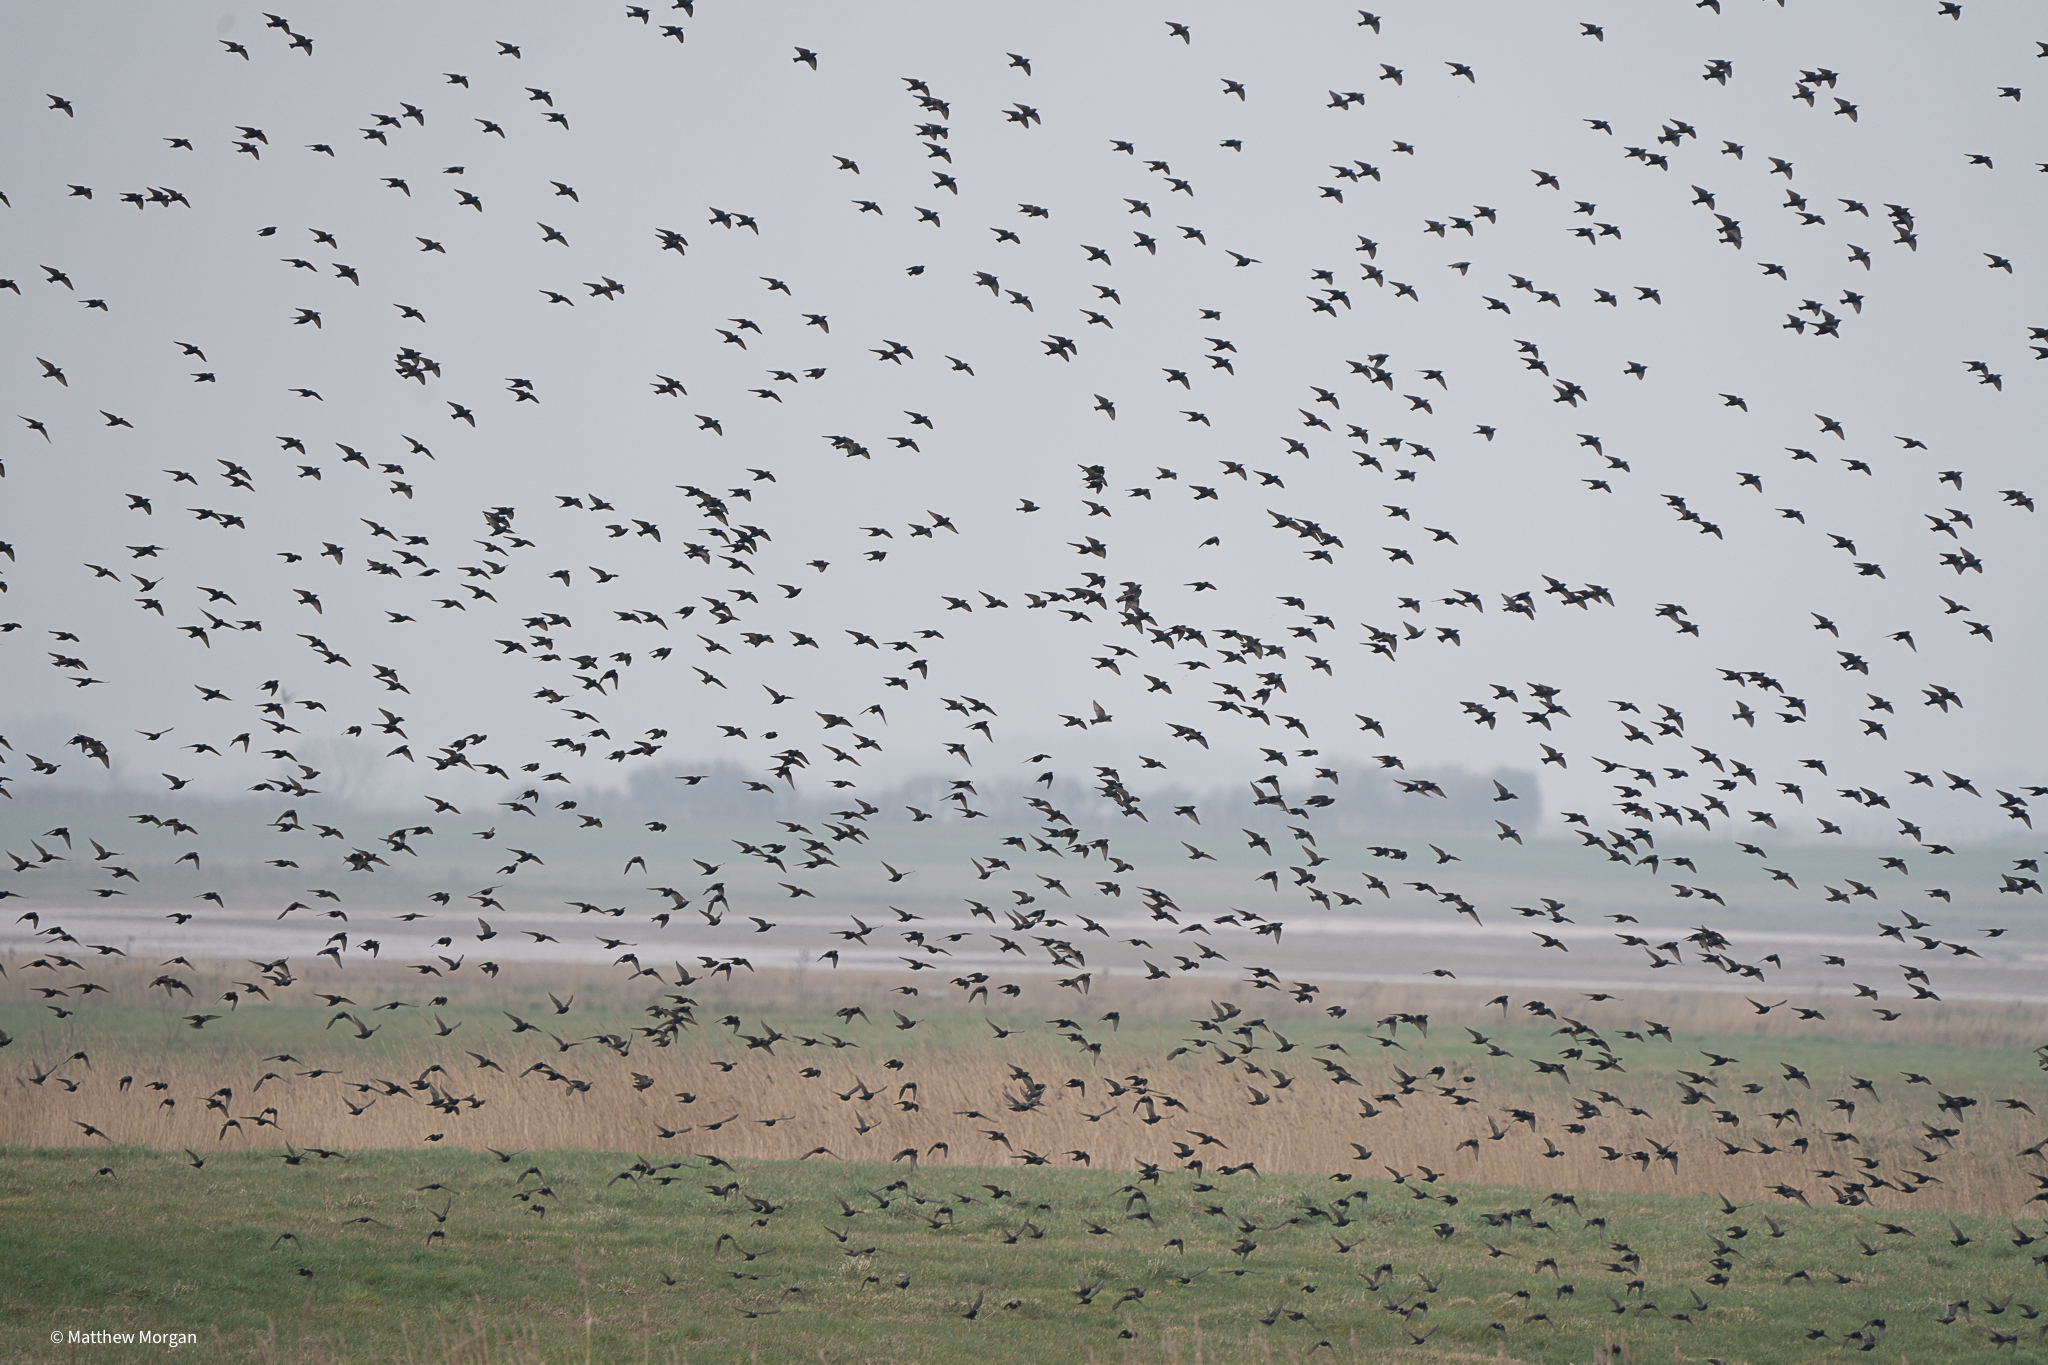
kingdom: Animalia
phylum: Chordata
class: Aves
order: Passeriformes
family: Sturnidae
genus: Sturnus
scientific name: Sturnus vulgaris
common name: Common starling
